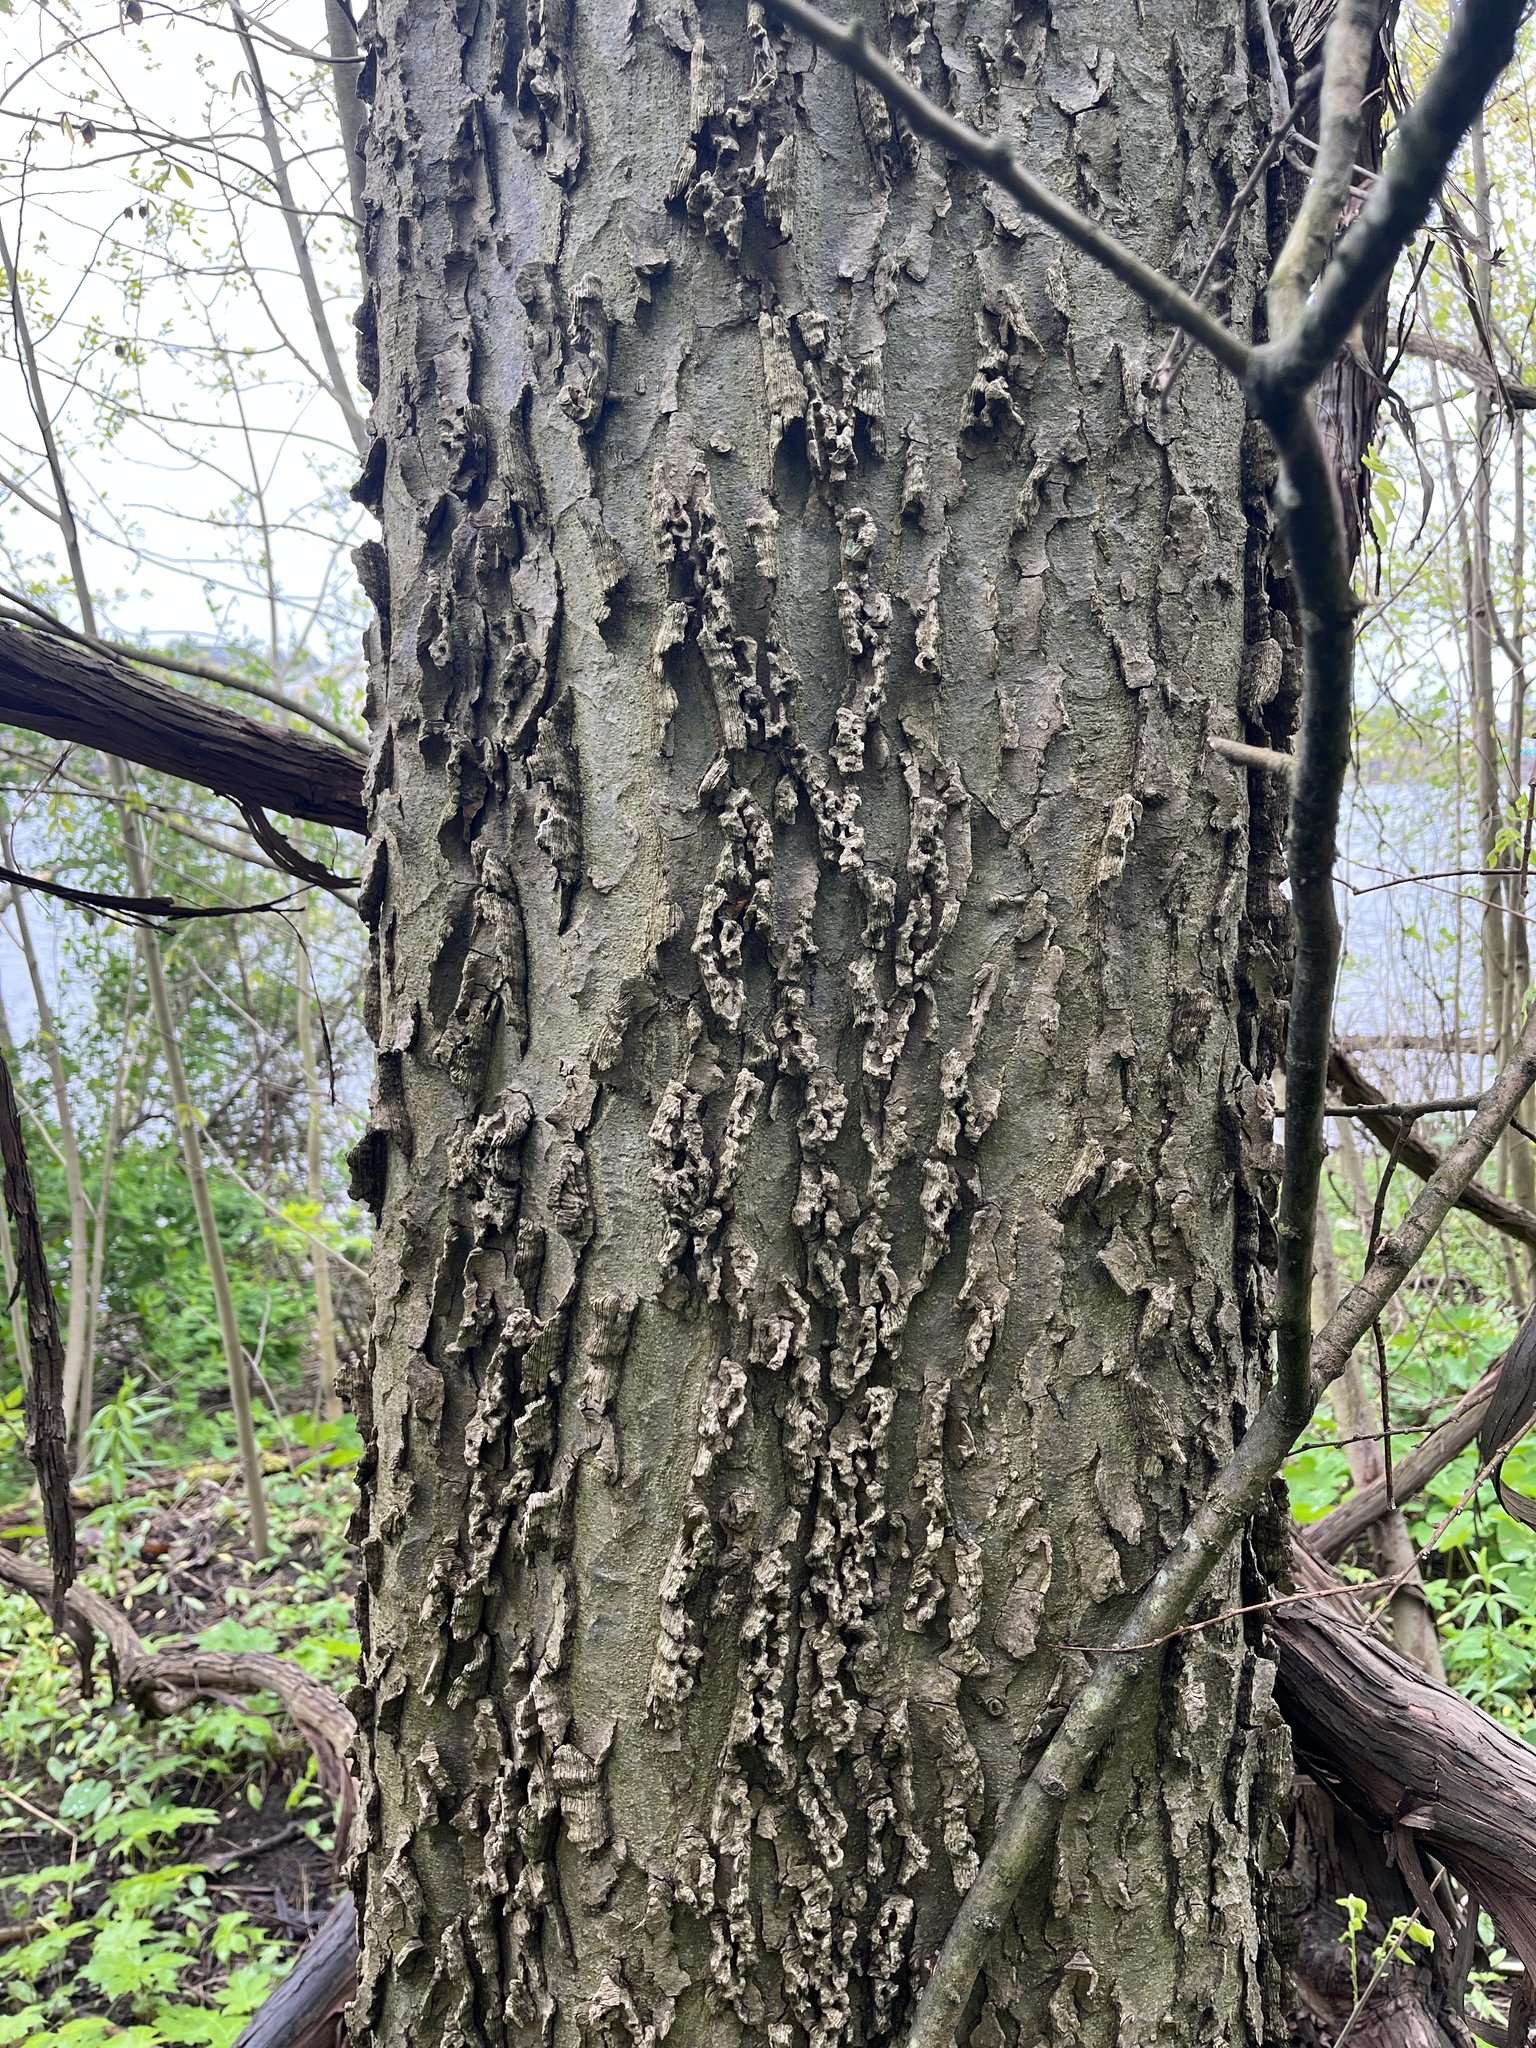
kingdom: Plantae
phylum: Tracheophyta
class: Magnoliopsida
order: Rosales
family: Cannabaceae
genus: Celtis
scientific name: Celtis occidentalis
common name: Common hackberry
